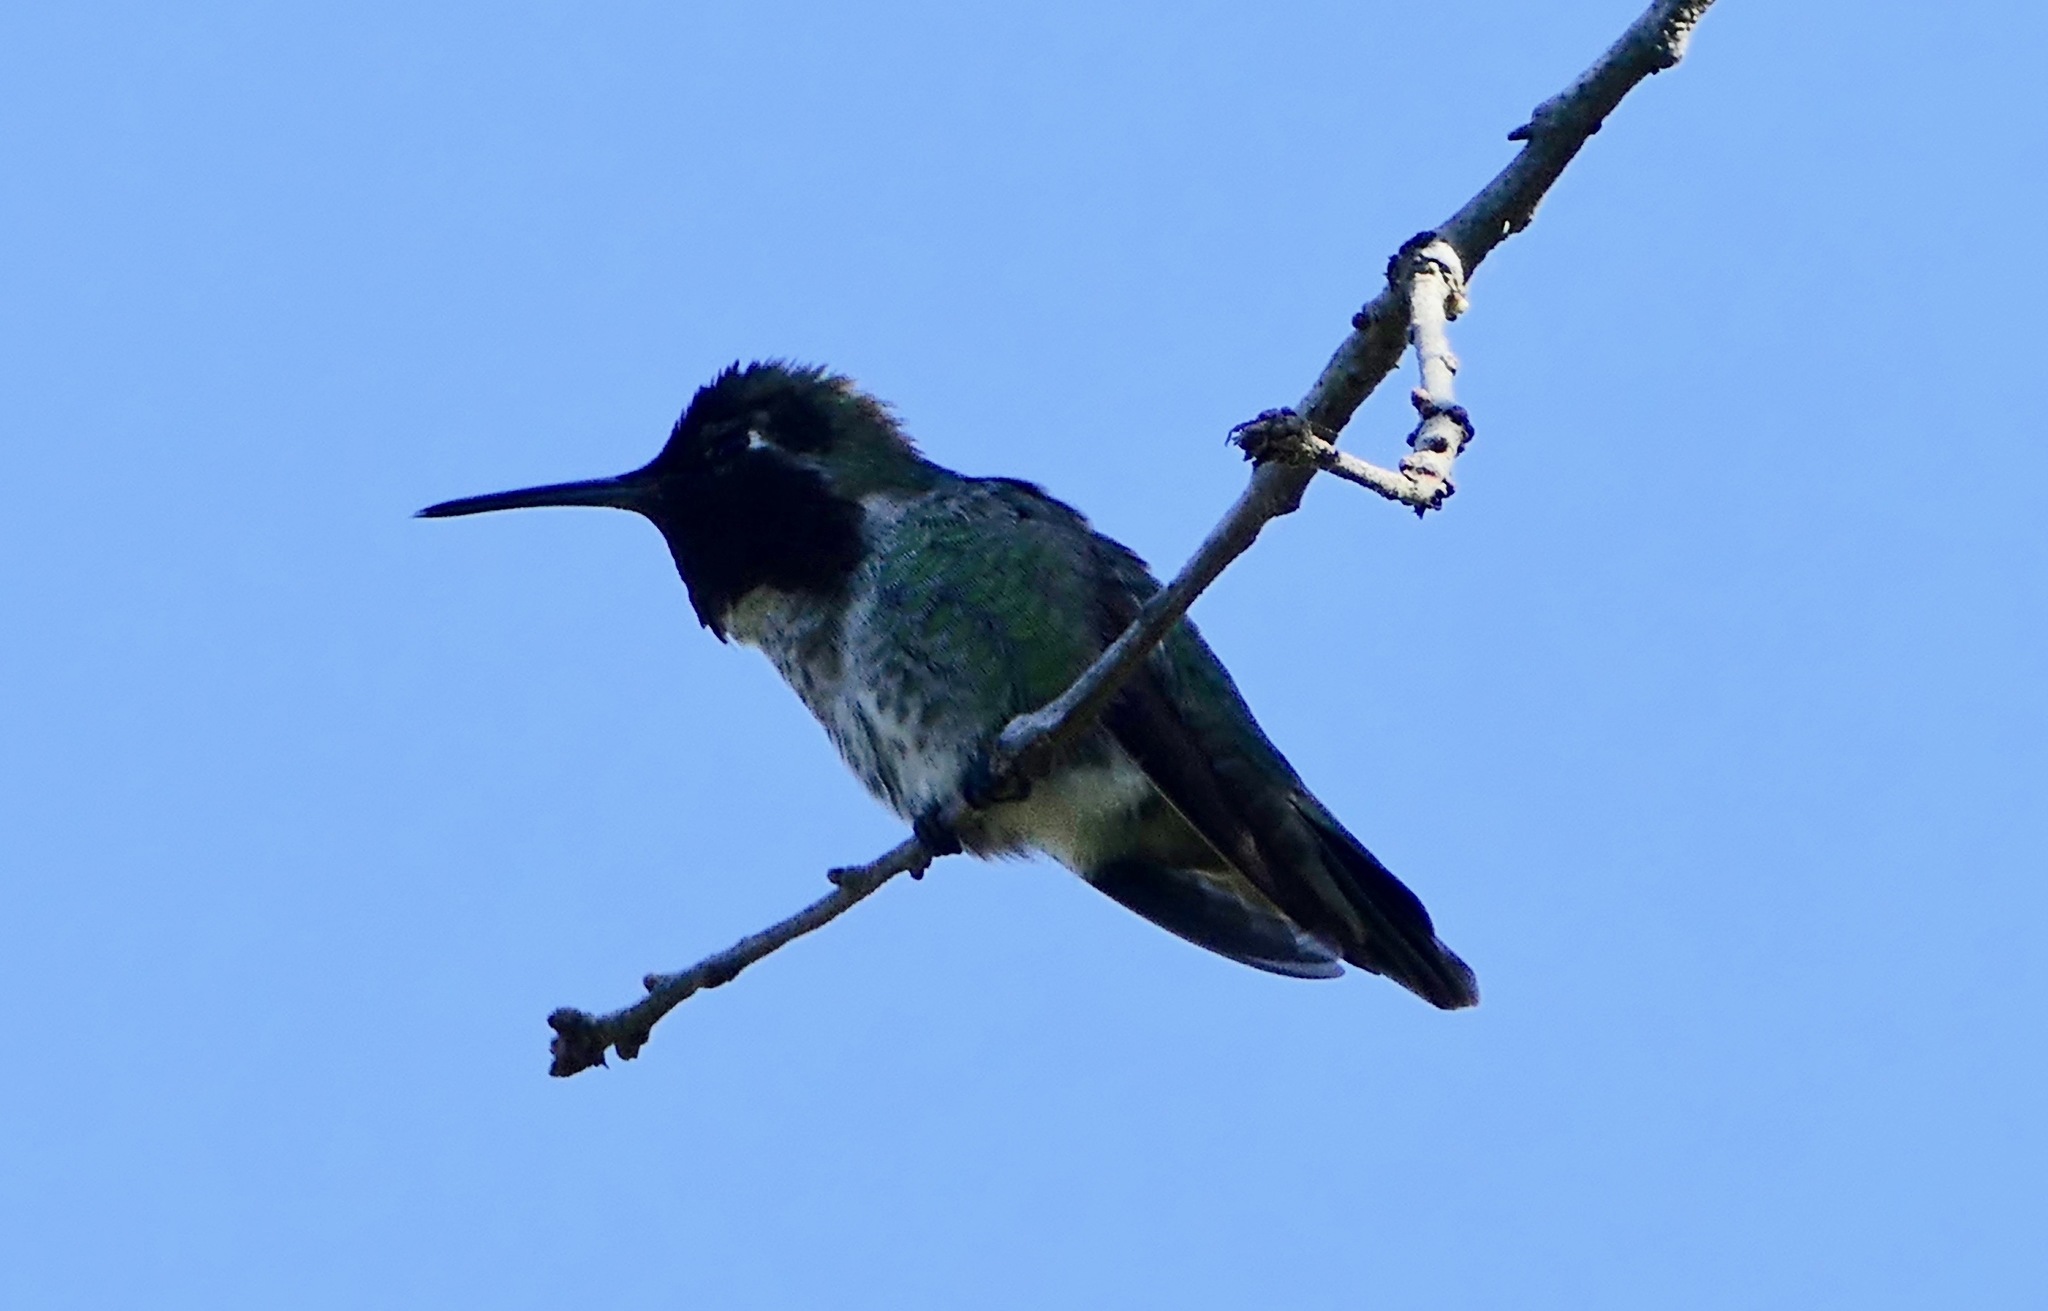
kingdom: Animalia
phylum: Chordata
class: Aves
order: Apodiformes
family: Trochilidae
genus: Calypte
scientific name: Calypte anna
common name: Anna's hummingbird
